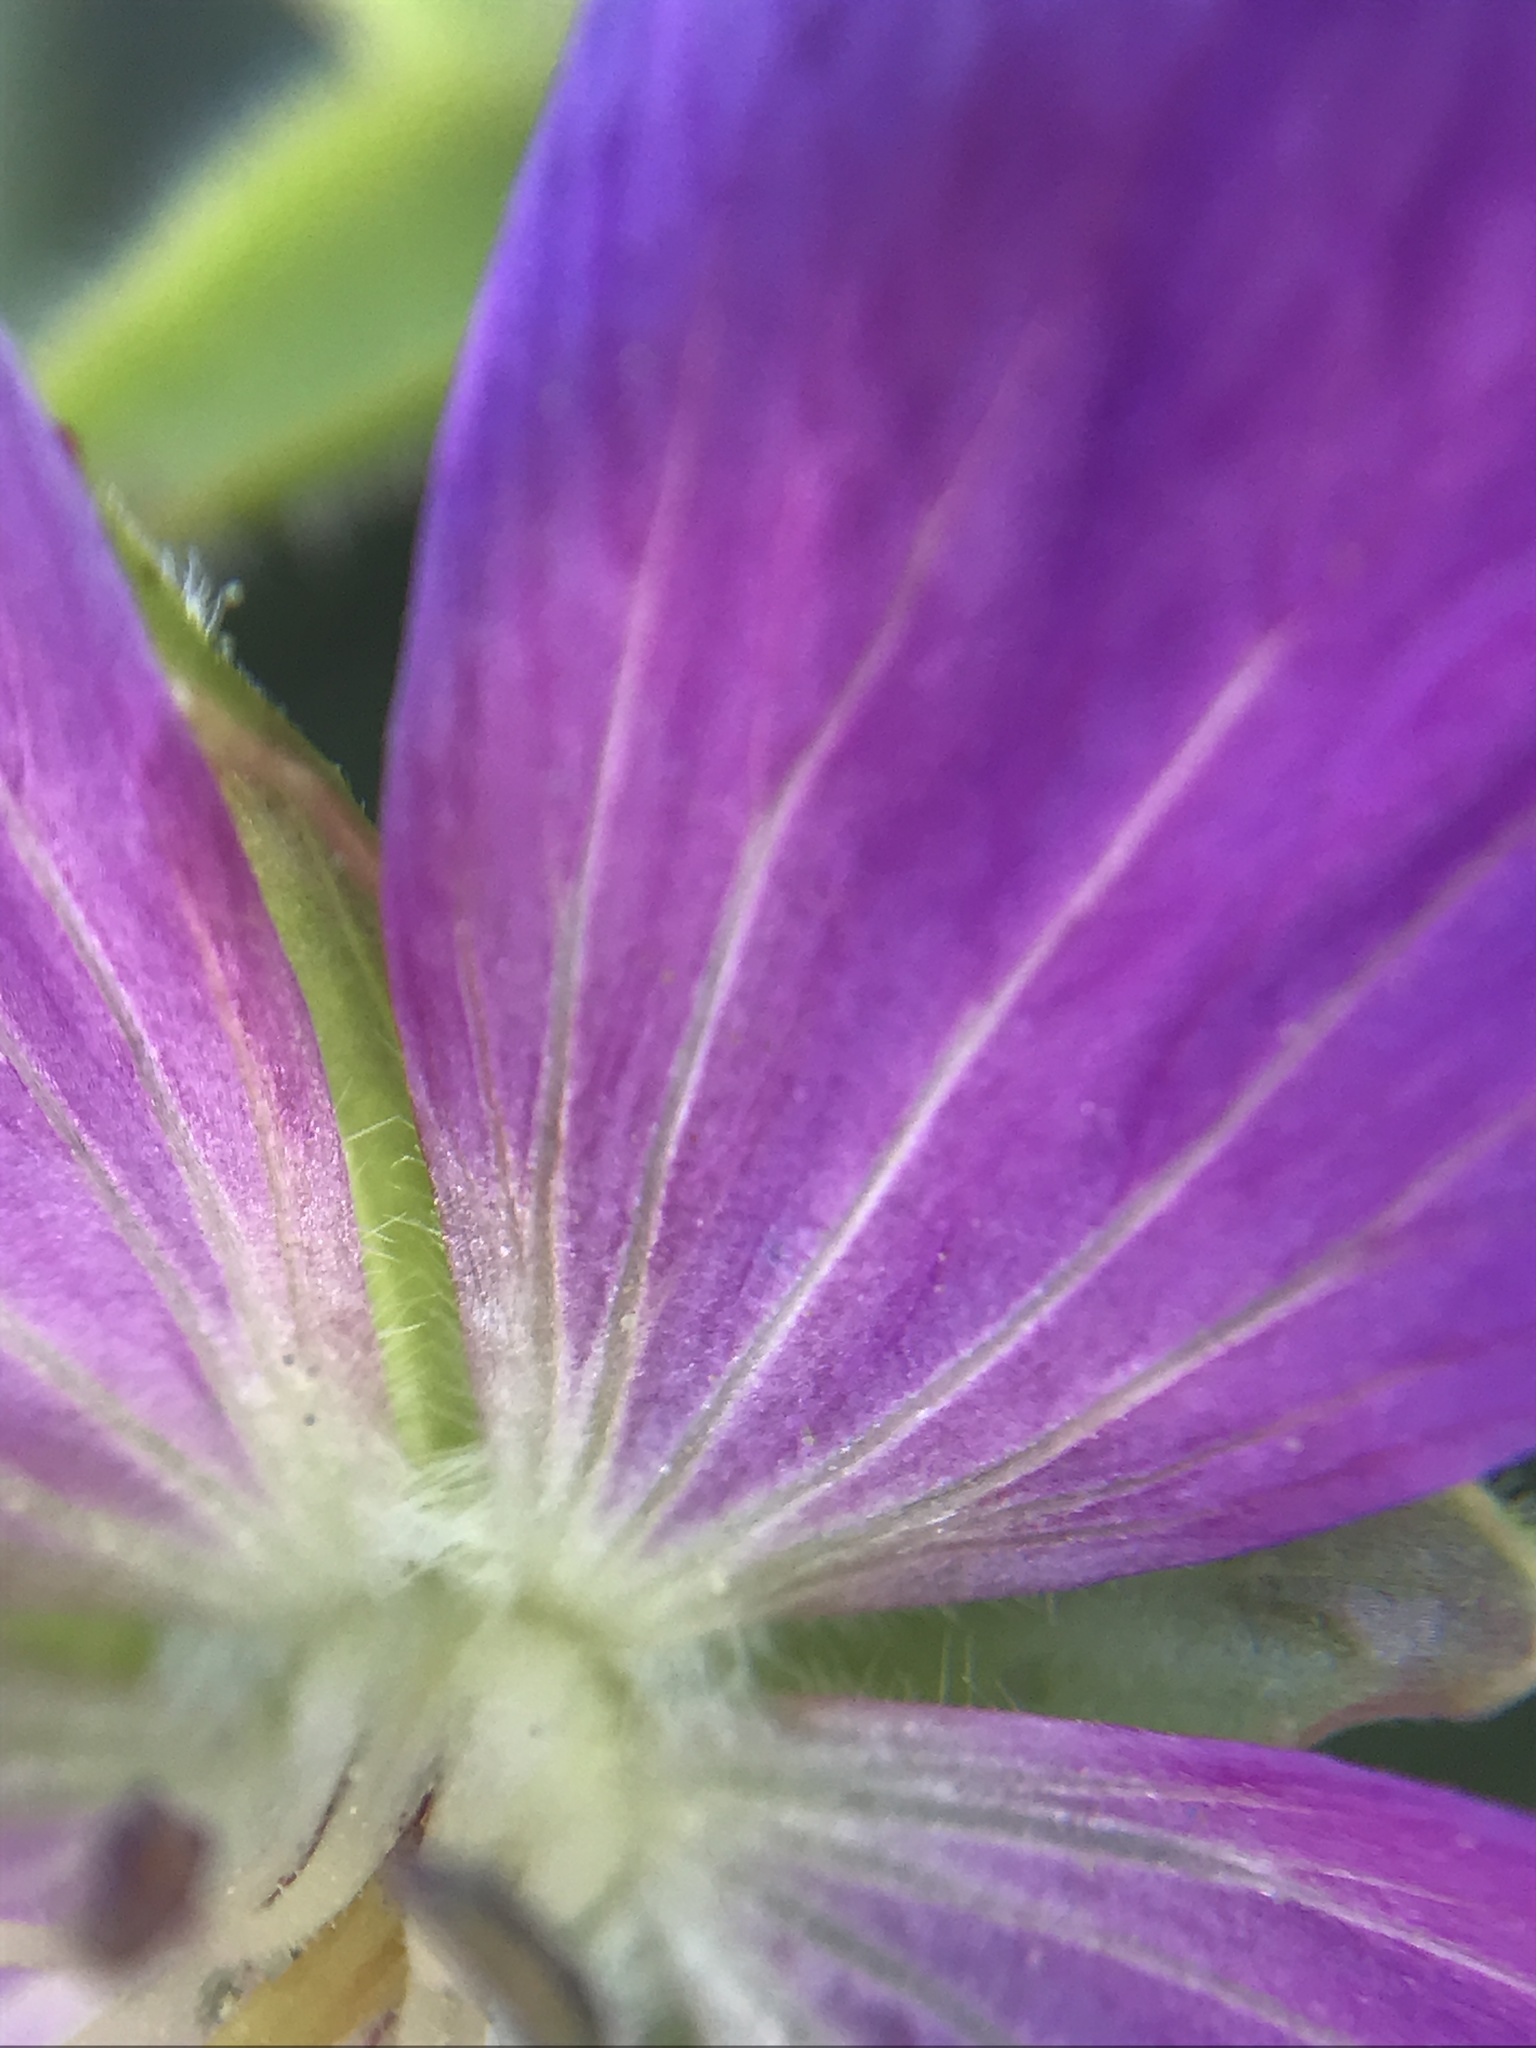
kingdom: Plantae
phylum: Tracheophyta
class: Magnoliopsida
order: Geraniales
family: Geraniaceae
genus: Geranium
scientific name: Geranium oreganum
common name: Oregon crane's-bill
